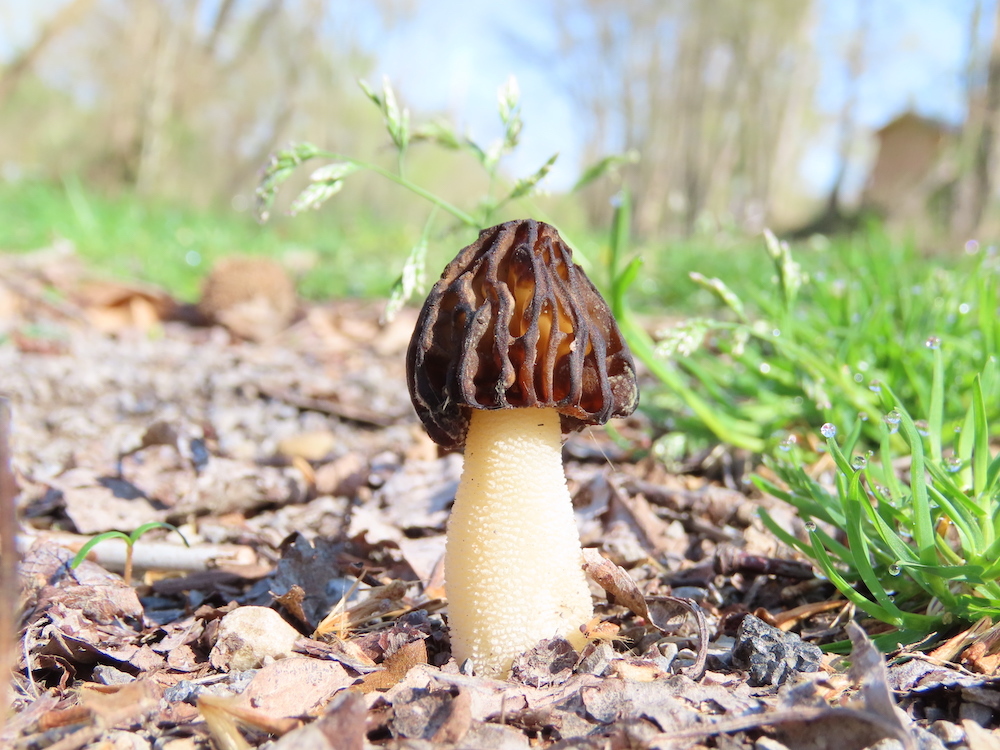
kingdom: Fungi
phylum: Ascomycota
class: Pezizomycetes
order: Pezizales
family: Morchellaceae
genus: Morchella
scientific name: Morchella punctipes
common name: Half-free morel
